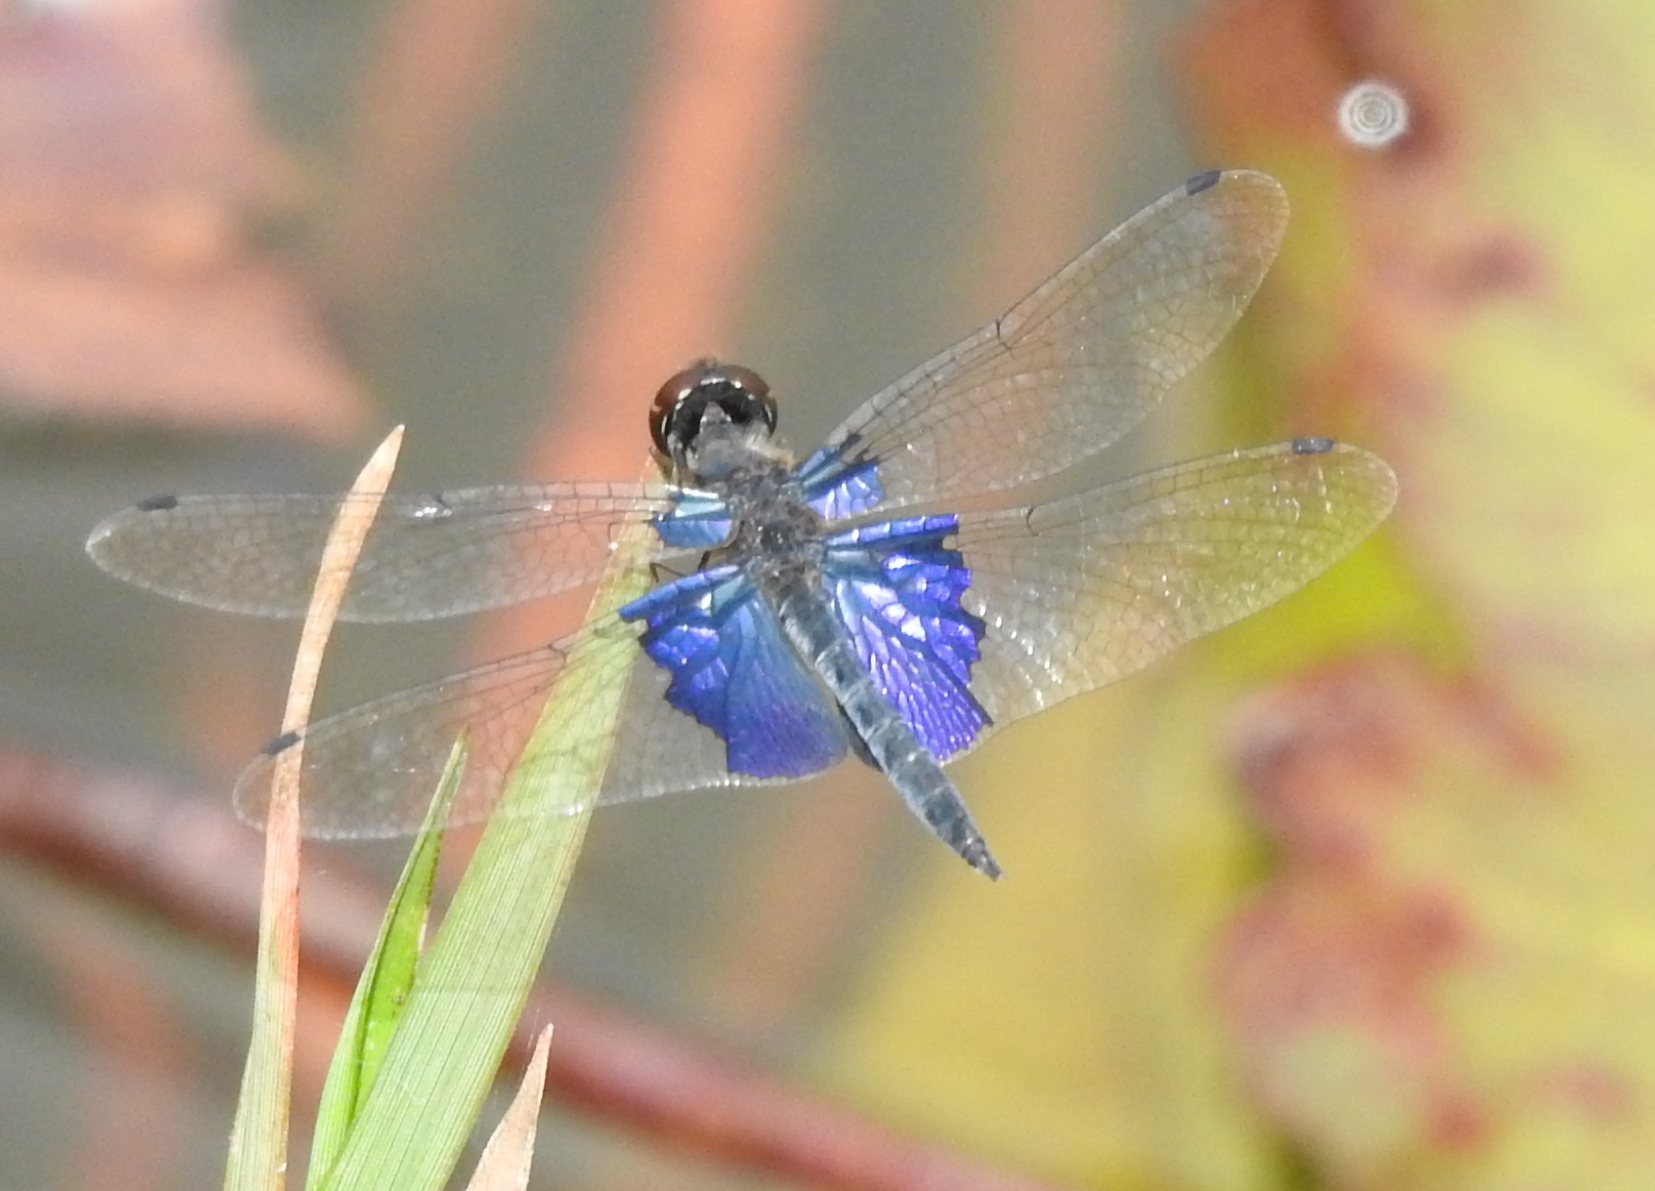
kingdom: Animalia
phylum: Arthropoda
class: Insecta
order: Odonata
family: Libellulidae
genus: Rhyothemis
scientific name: Rhyothemis triangularis
